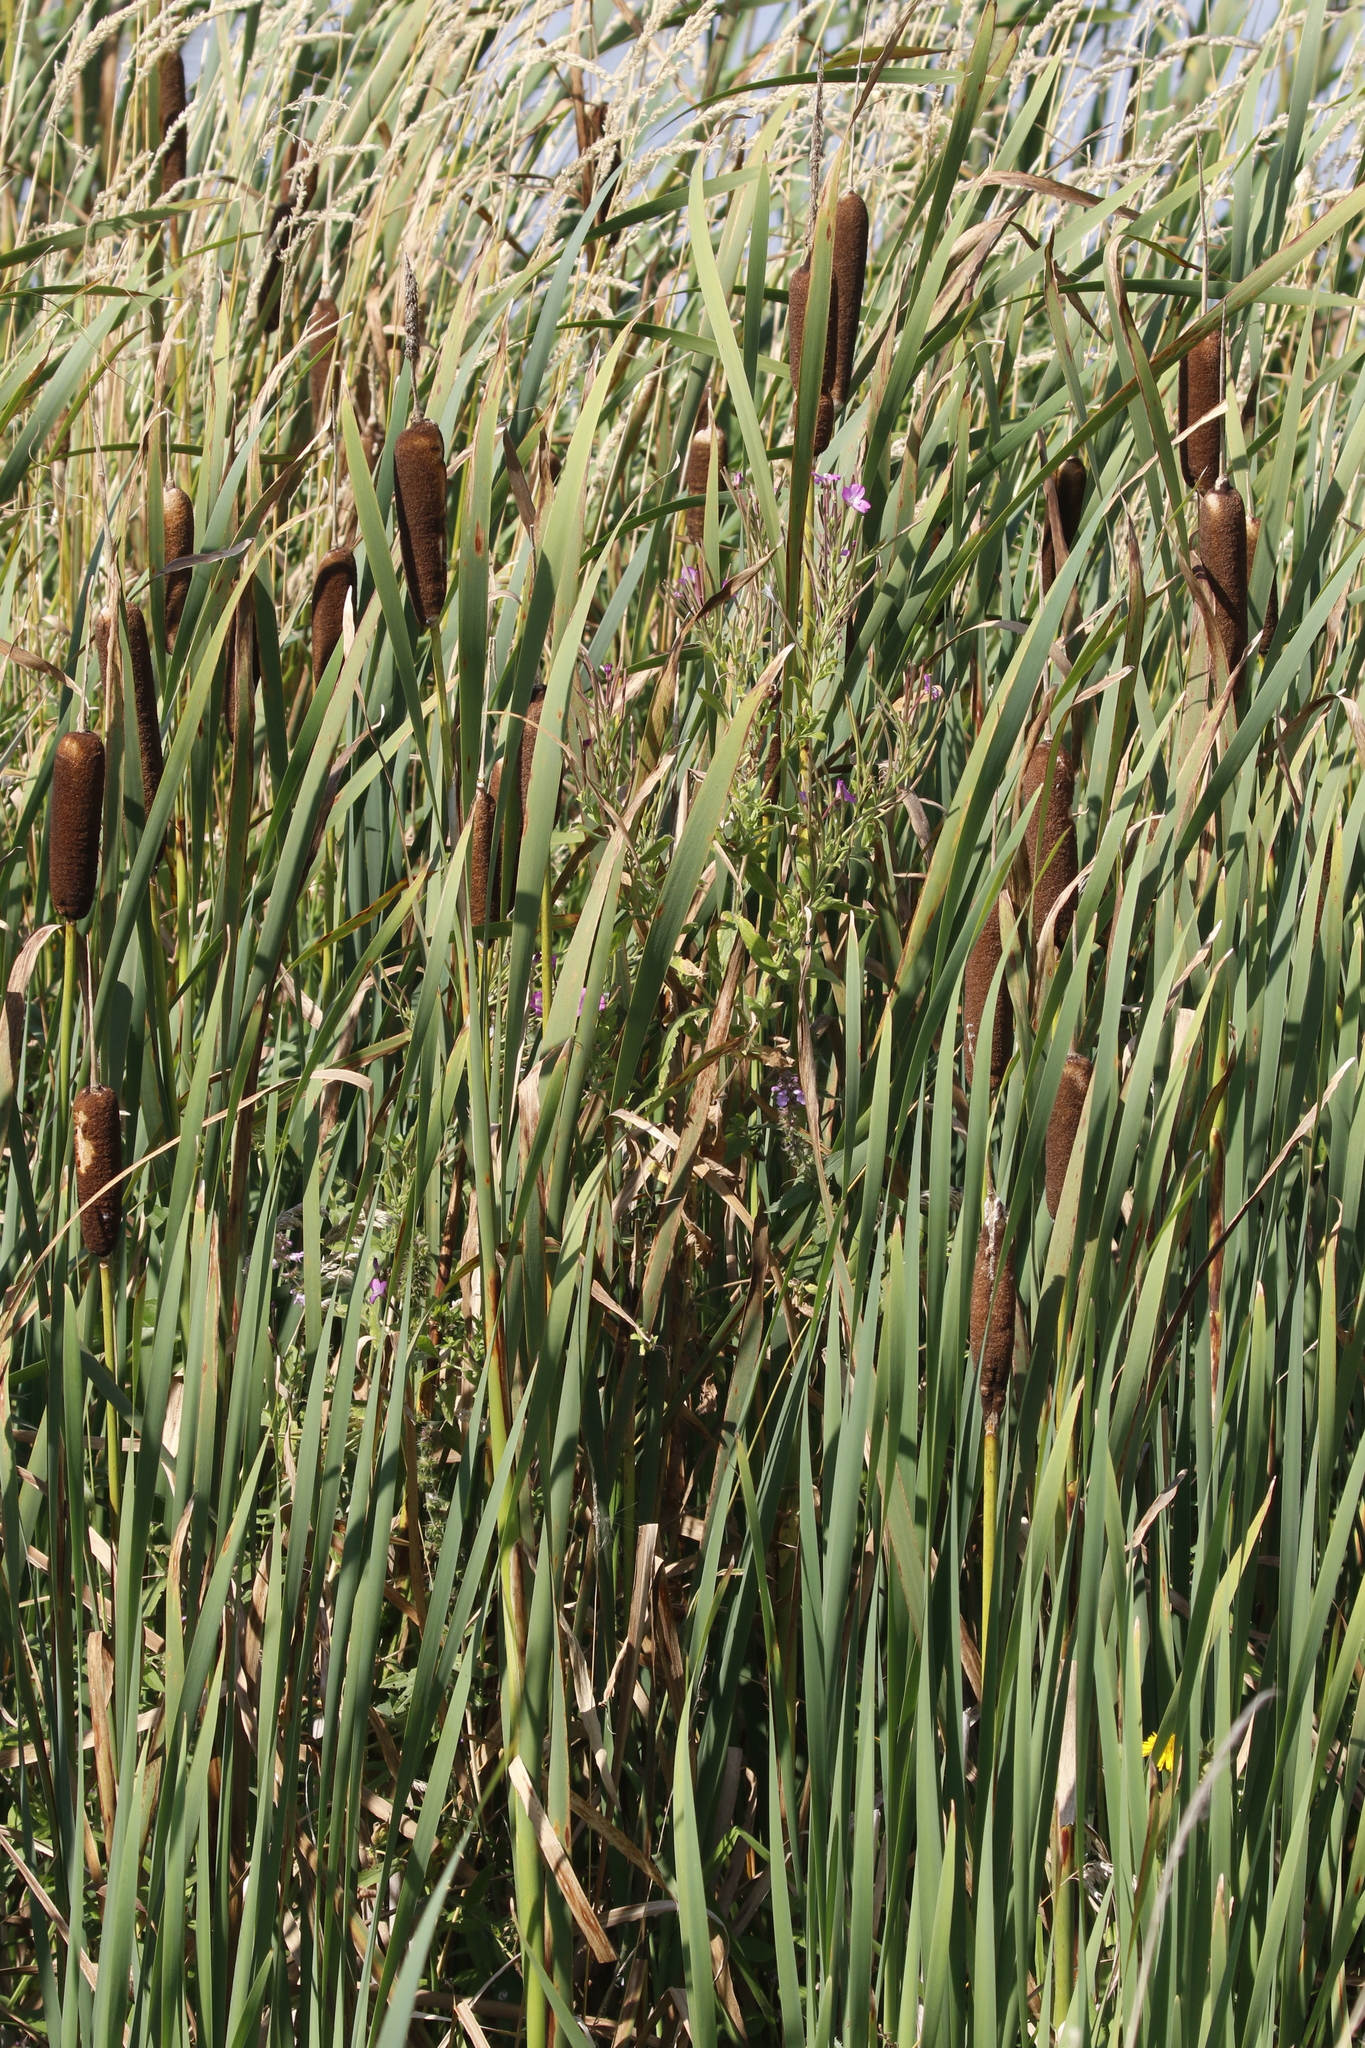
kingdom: Plantae
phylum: Tracheophyta
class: Liliopsida
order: Poales
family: Typhaceae
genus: Typha
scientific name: Typha latifolia
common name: Broadleaf cattail
